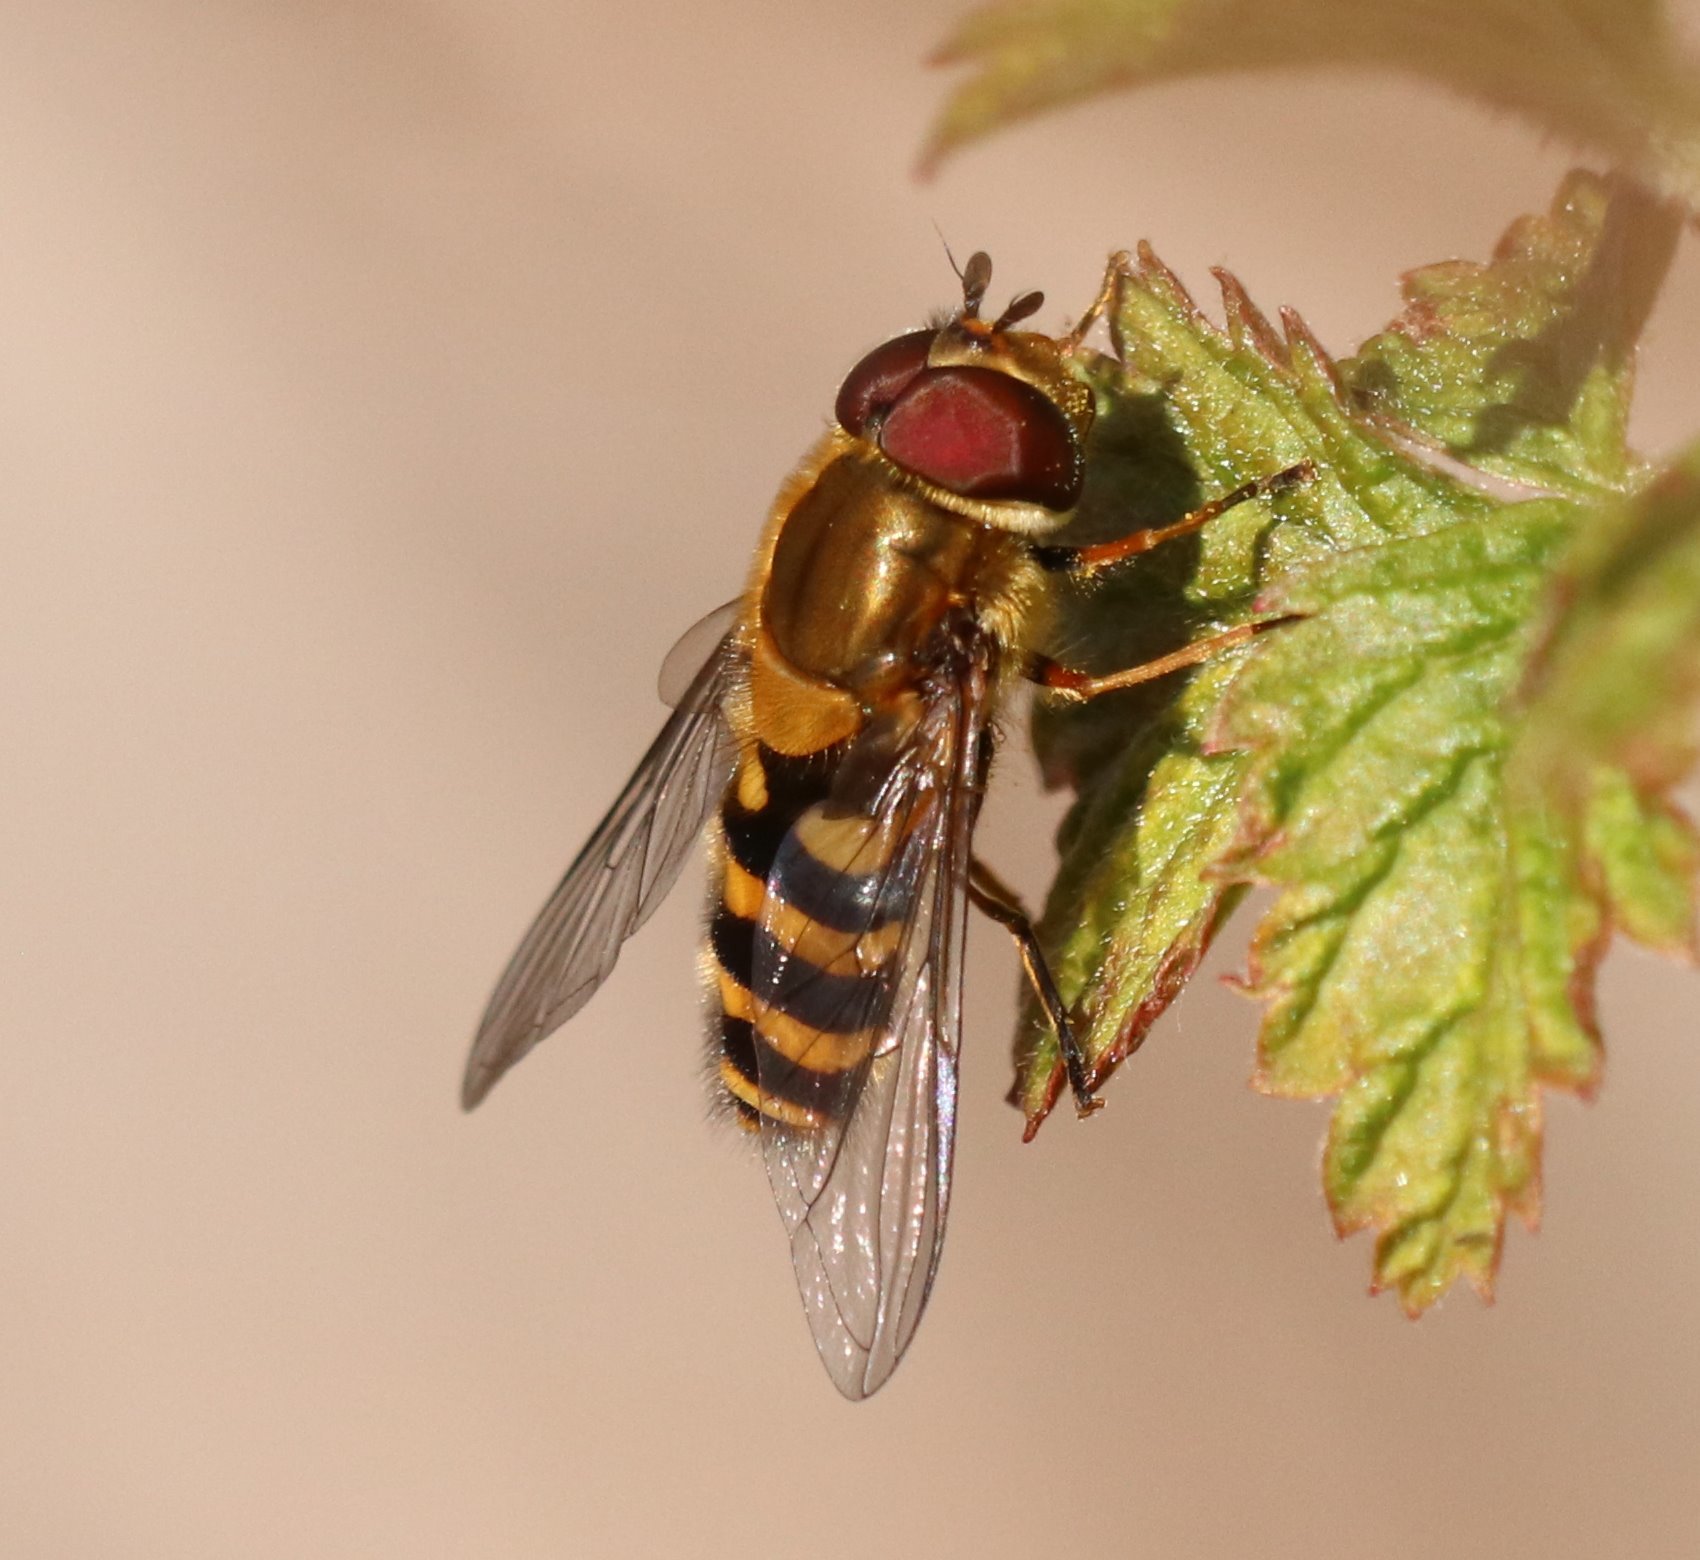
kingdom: Animalia
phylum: Arthropoda
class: Insecta
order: Diptera
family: Syrphidae
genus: Syrphus
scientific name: Syrphus torvus
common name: Hairy-eyed flower fly
